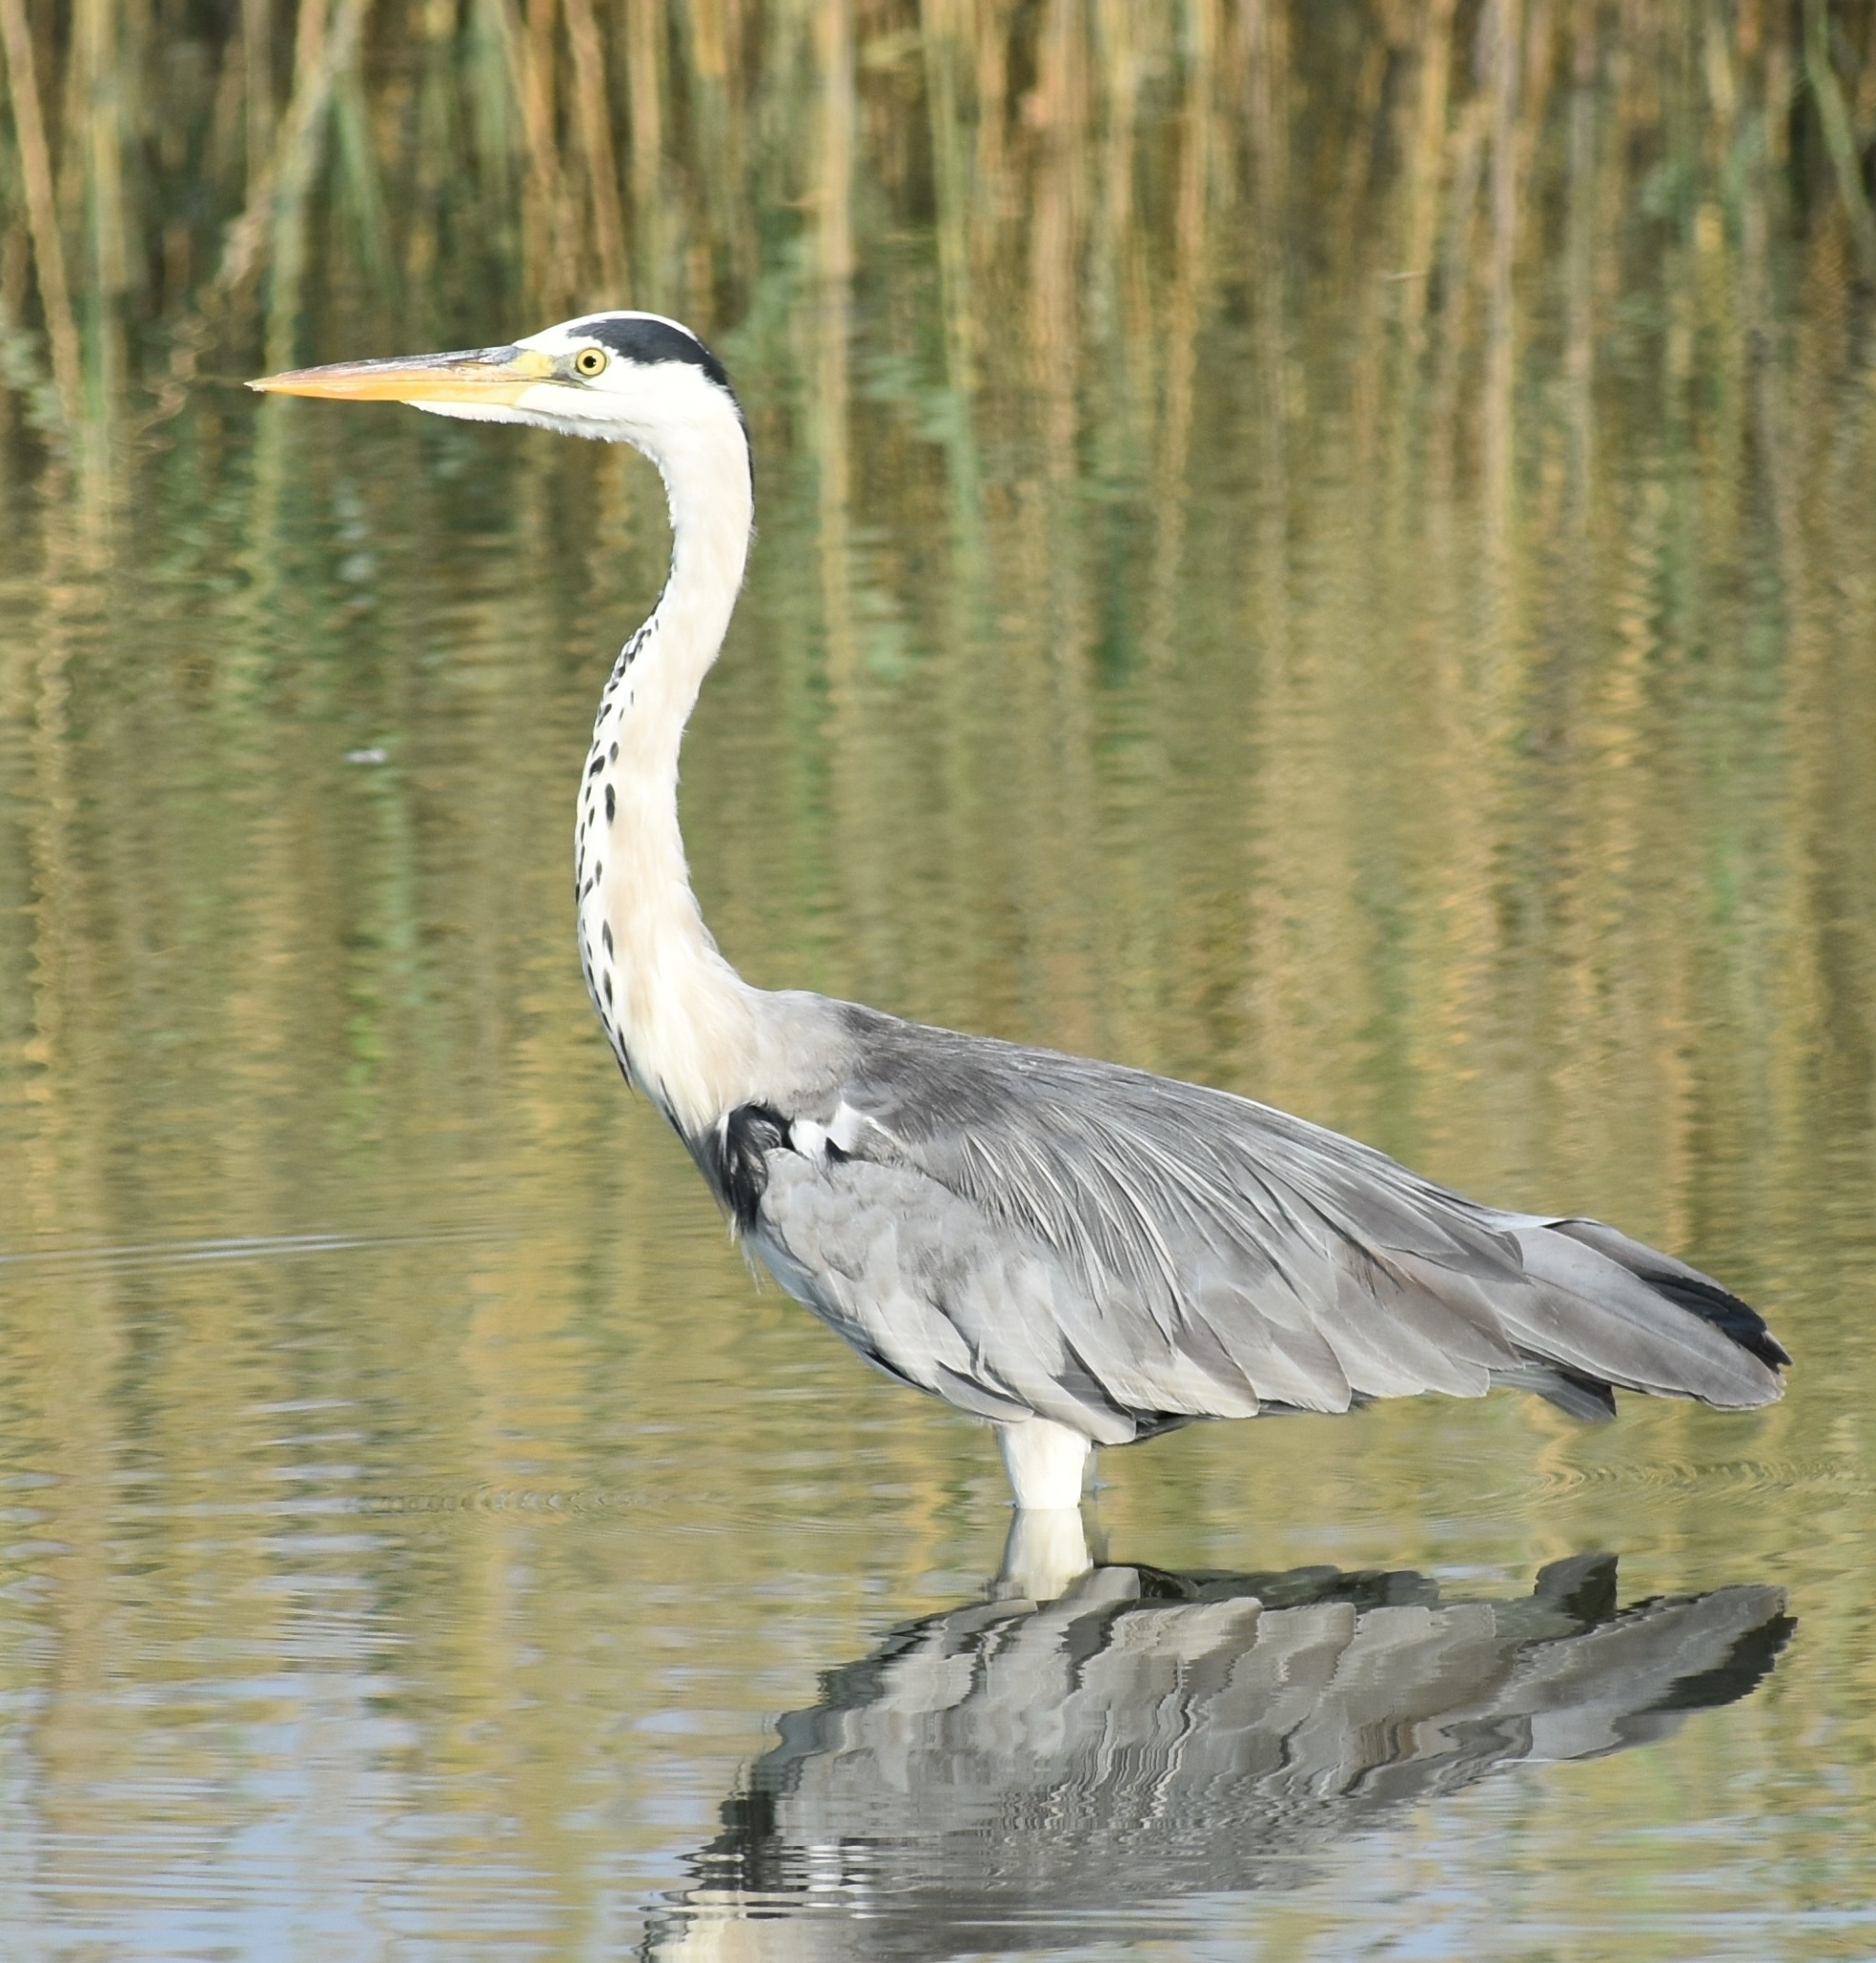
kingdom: Animalia
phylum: Chordata
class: Aves
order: Pelecaniformes
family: Ardeidae
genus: Ardea
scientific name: Ardea cinerea
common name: Grey heron
